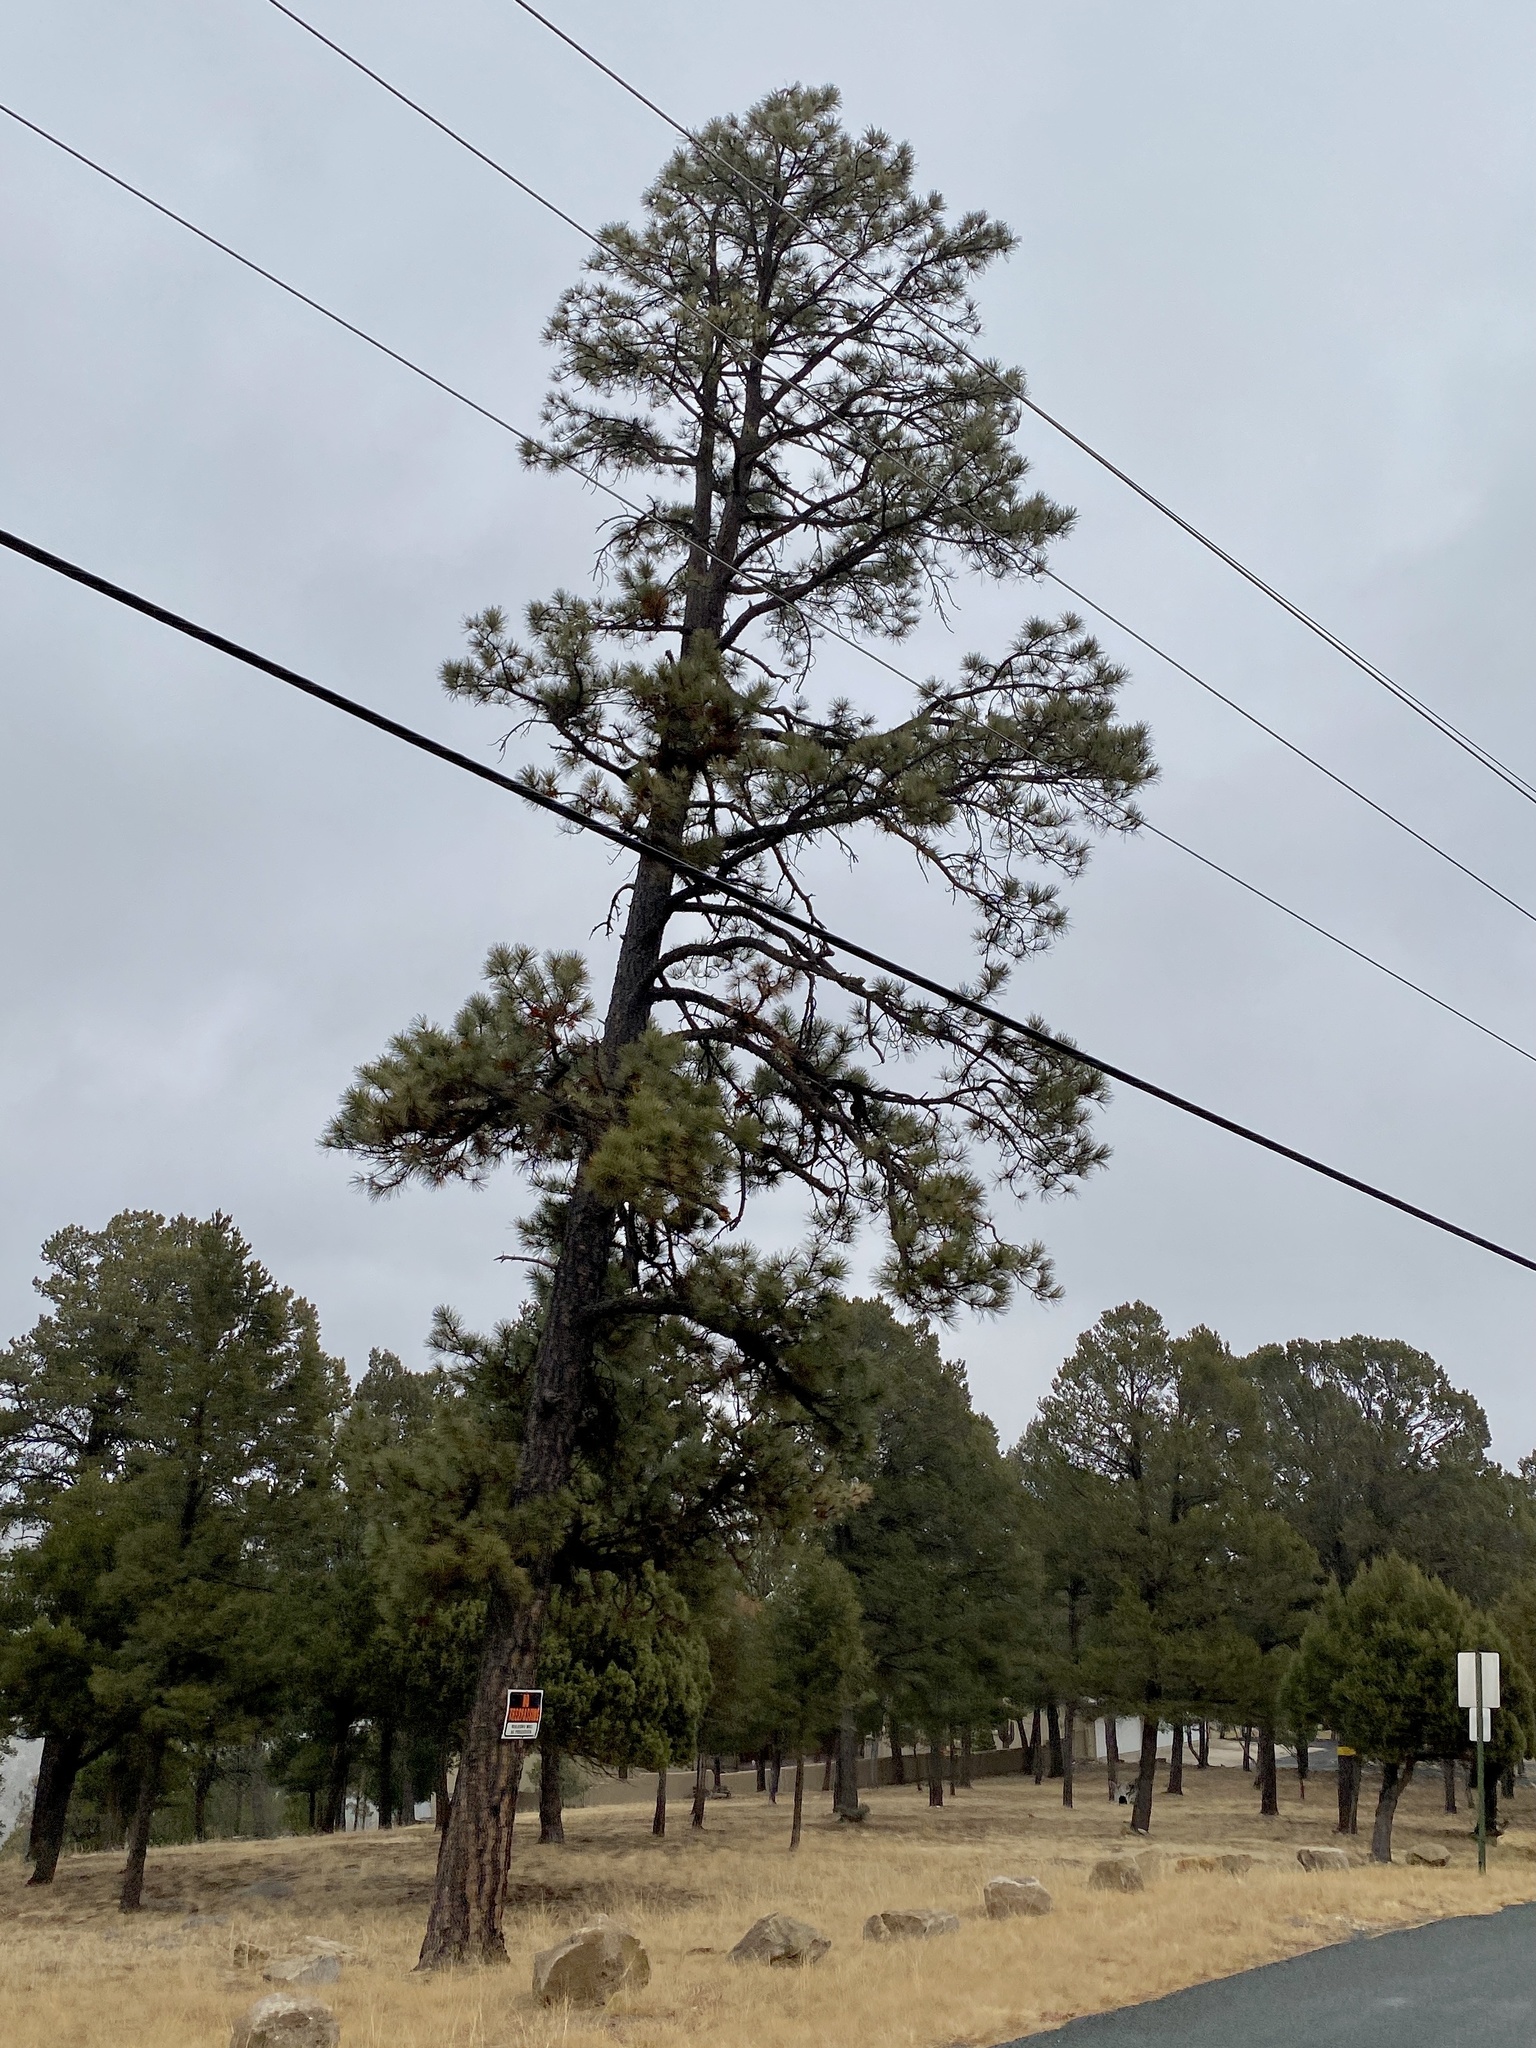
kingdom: Plantae
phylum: Tracheophyta
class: Pinopsida
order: Pinales
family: Pinaceae
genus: Pinus
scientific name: Pinus ponderosa
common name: Western yellow-pine
